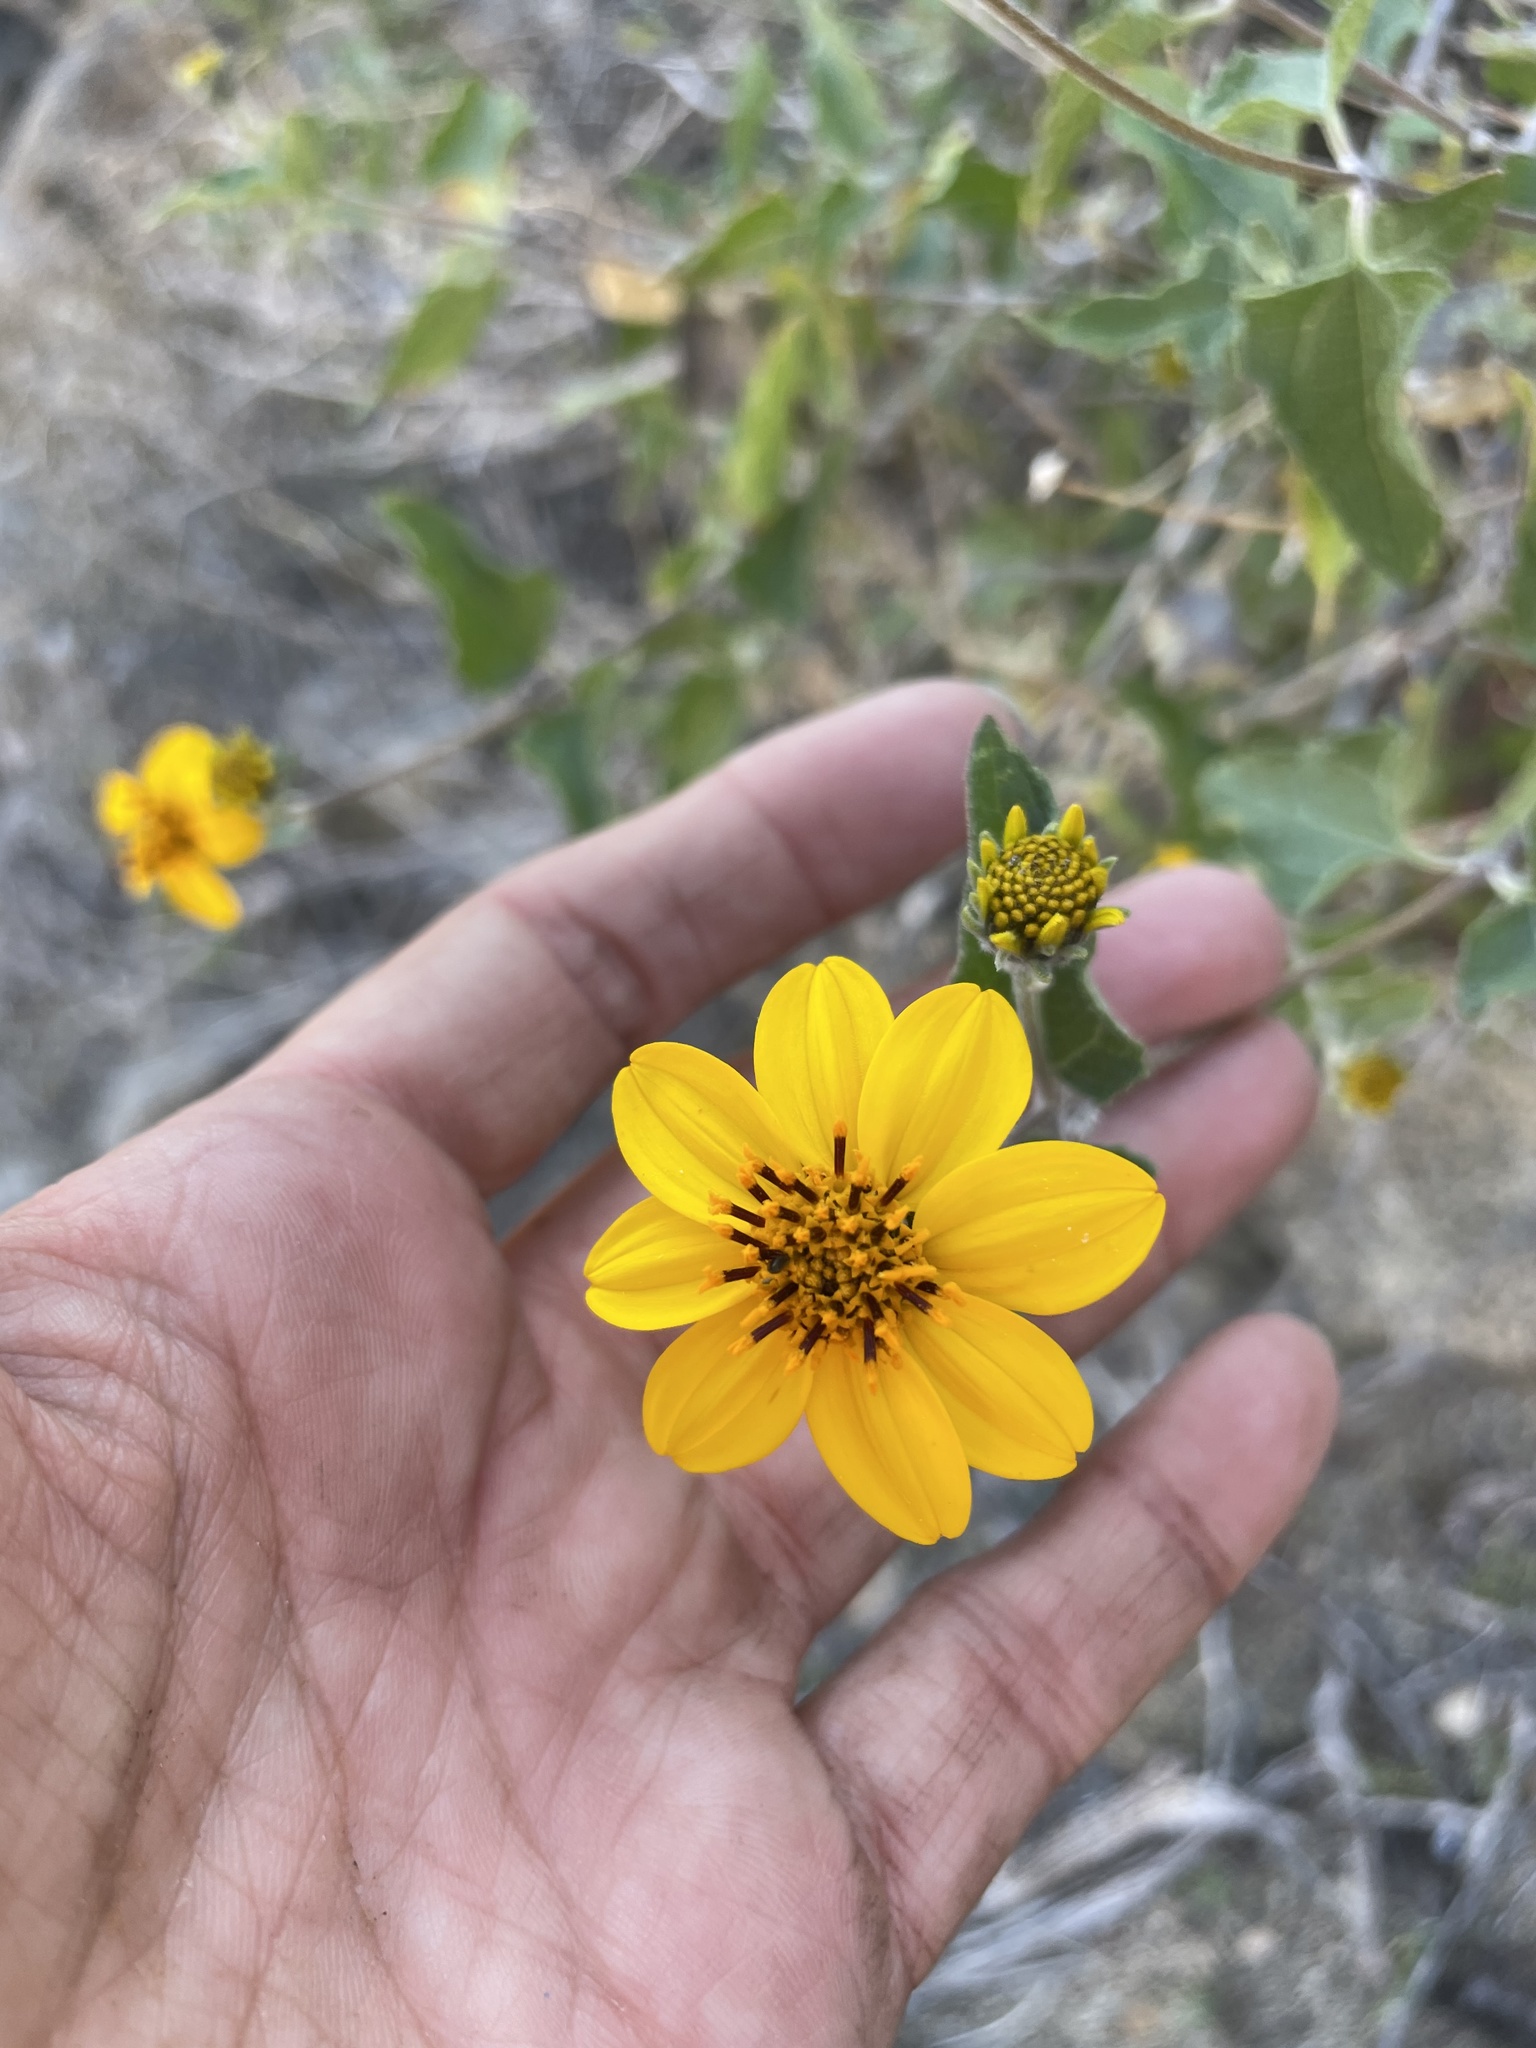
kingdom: Plantae
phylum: Tracheophyta
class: Magnoliopsida
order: Asterales
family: Asteraceae
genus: Bahiopsis
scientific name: Bahiopsis triangularis
